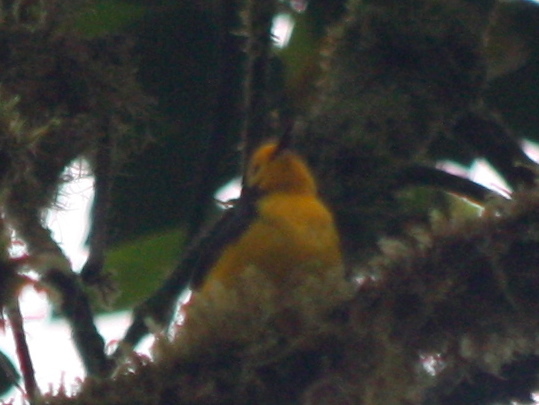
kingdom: Animalia
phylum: Chordata
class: Aves
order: Passeriformes
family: Parulidae
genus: Myioborus
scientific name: Myioborus ornatus
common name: Golden-fronted whitestart
